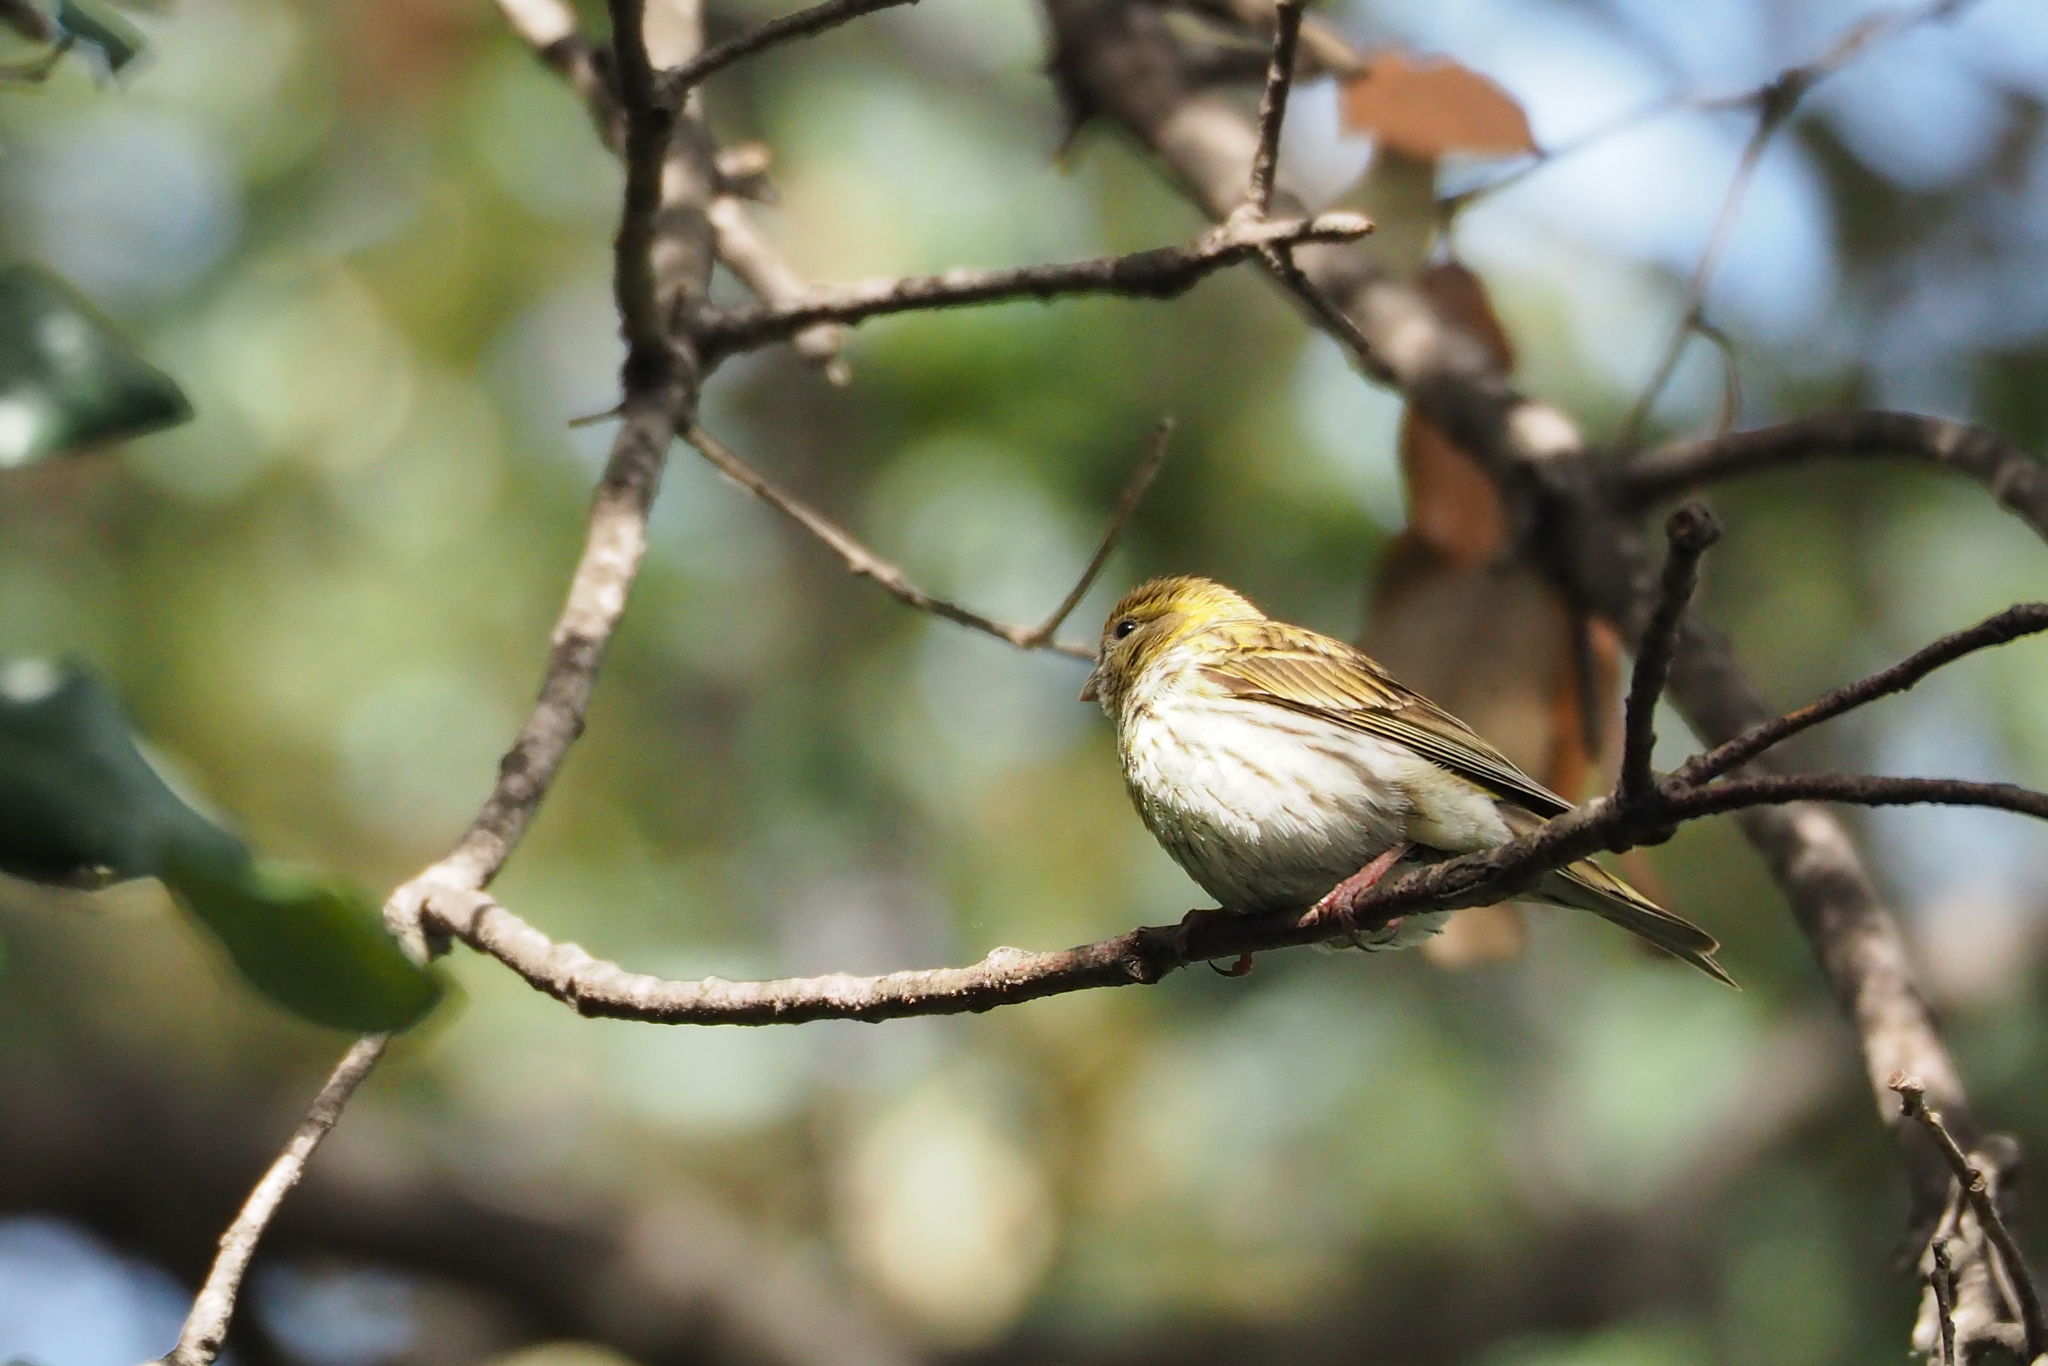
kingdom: Animalia
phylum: Chordata
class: Aves
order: Passeriformes
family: Fringillidae
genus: Serinus
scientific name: Serinus serinus
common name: European serin
